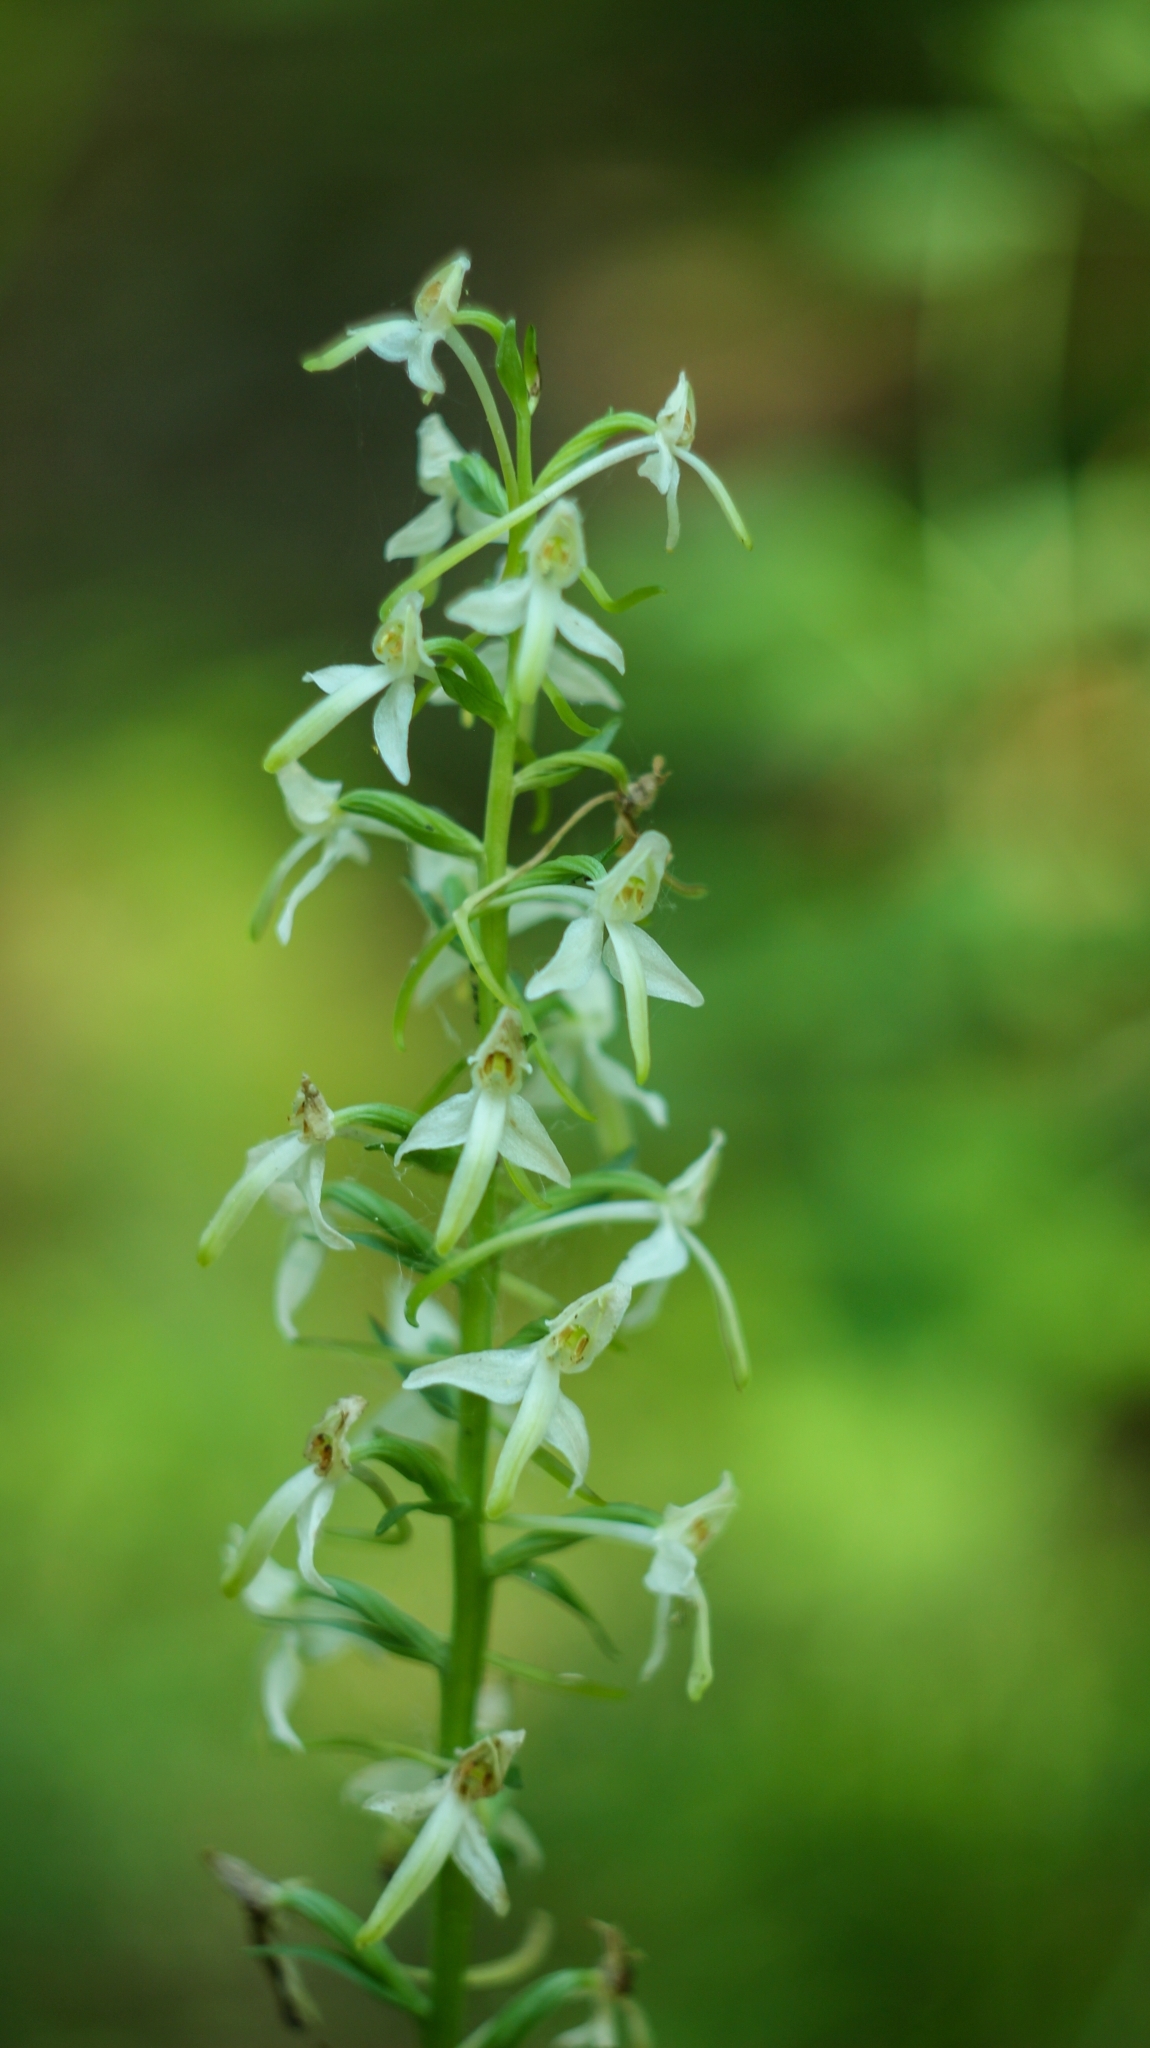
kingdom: Plantae
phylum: Tracheophyta
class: Liliopsida
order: Asparagales
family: Orchidaceae
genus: Platanthera
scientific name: Platanthera bifolia
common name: Lesser butterfly-orchid
